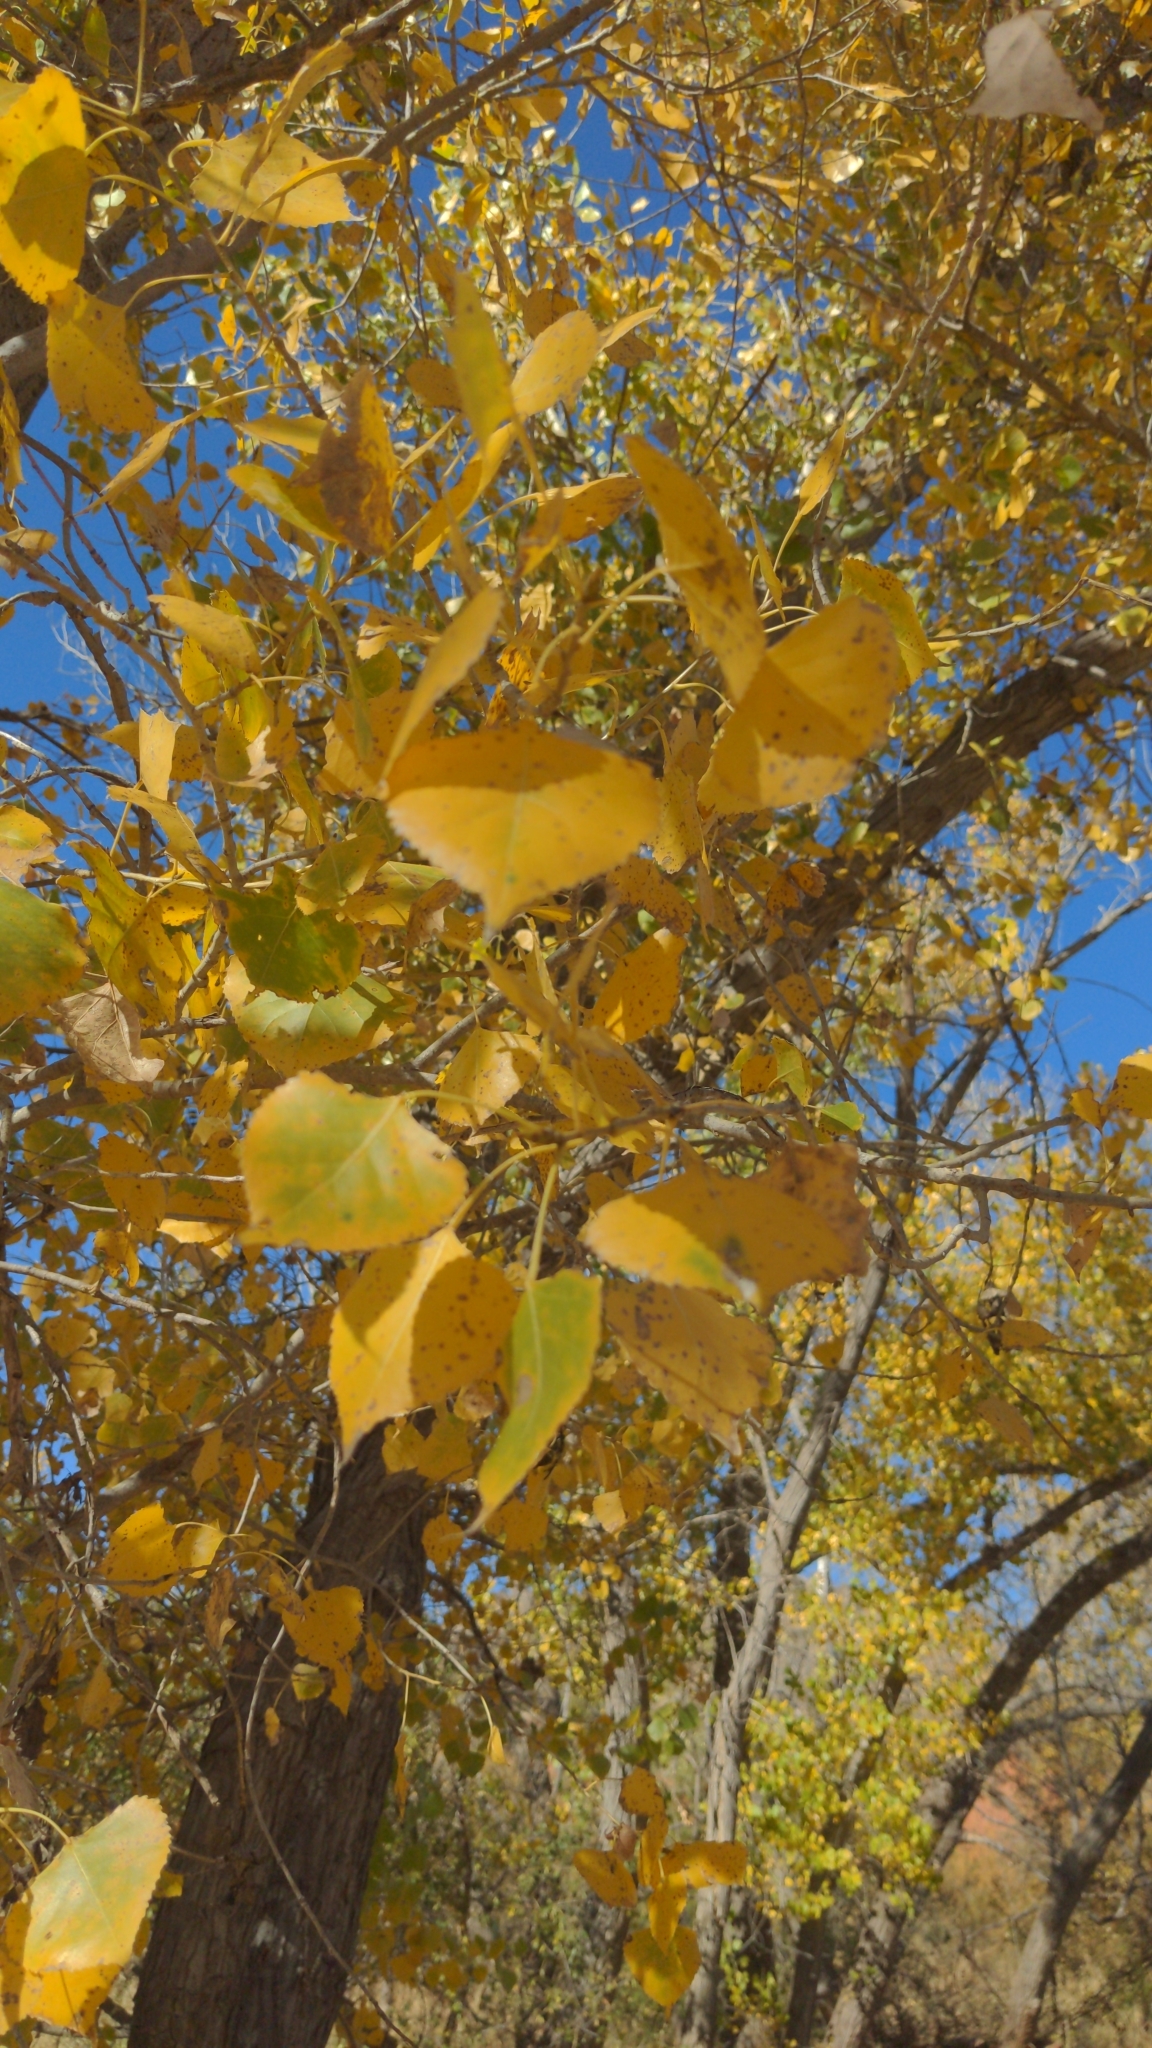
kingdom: Plantae
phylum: Tracheophyta
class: Magnoliopsida
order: Malpighiales
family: Salicaceae
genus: Populus
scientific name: Populus deltoides
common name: Eastern cottonwood
